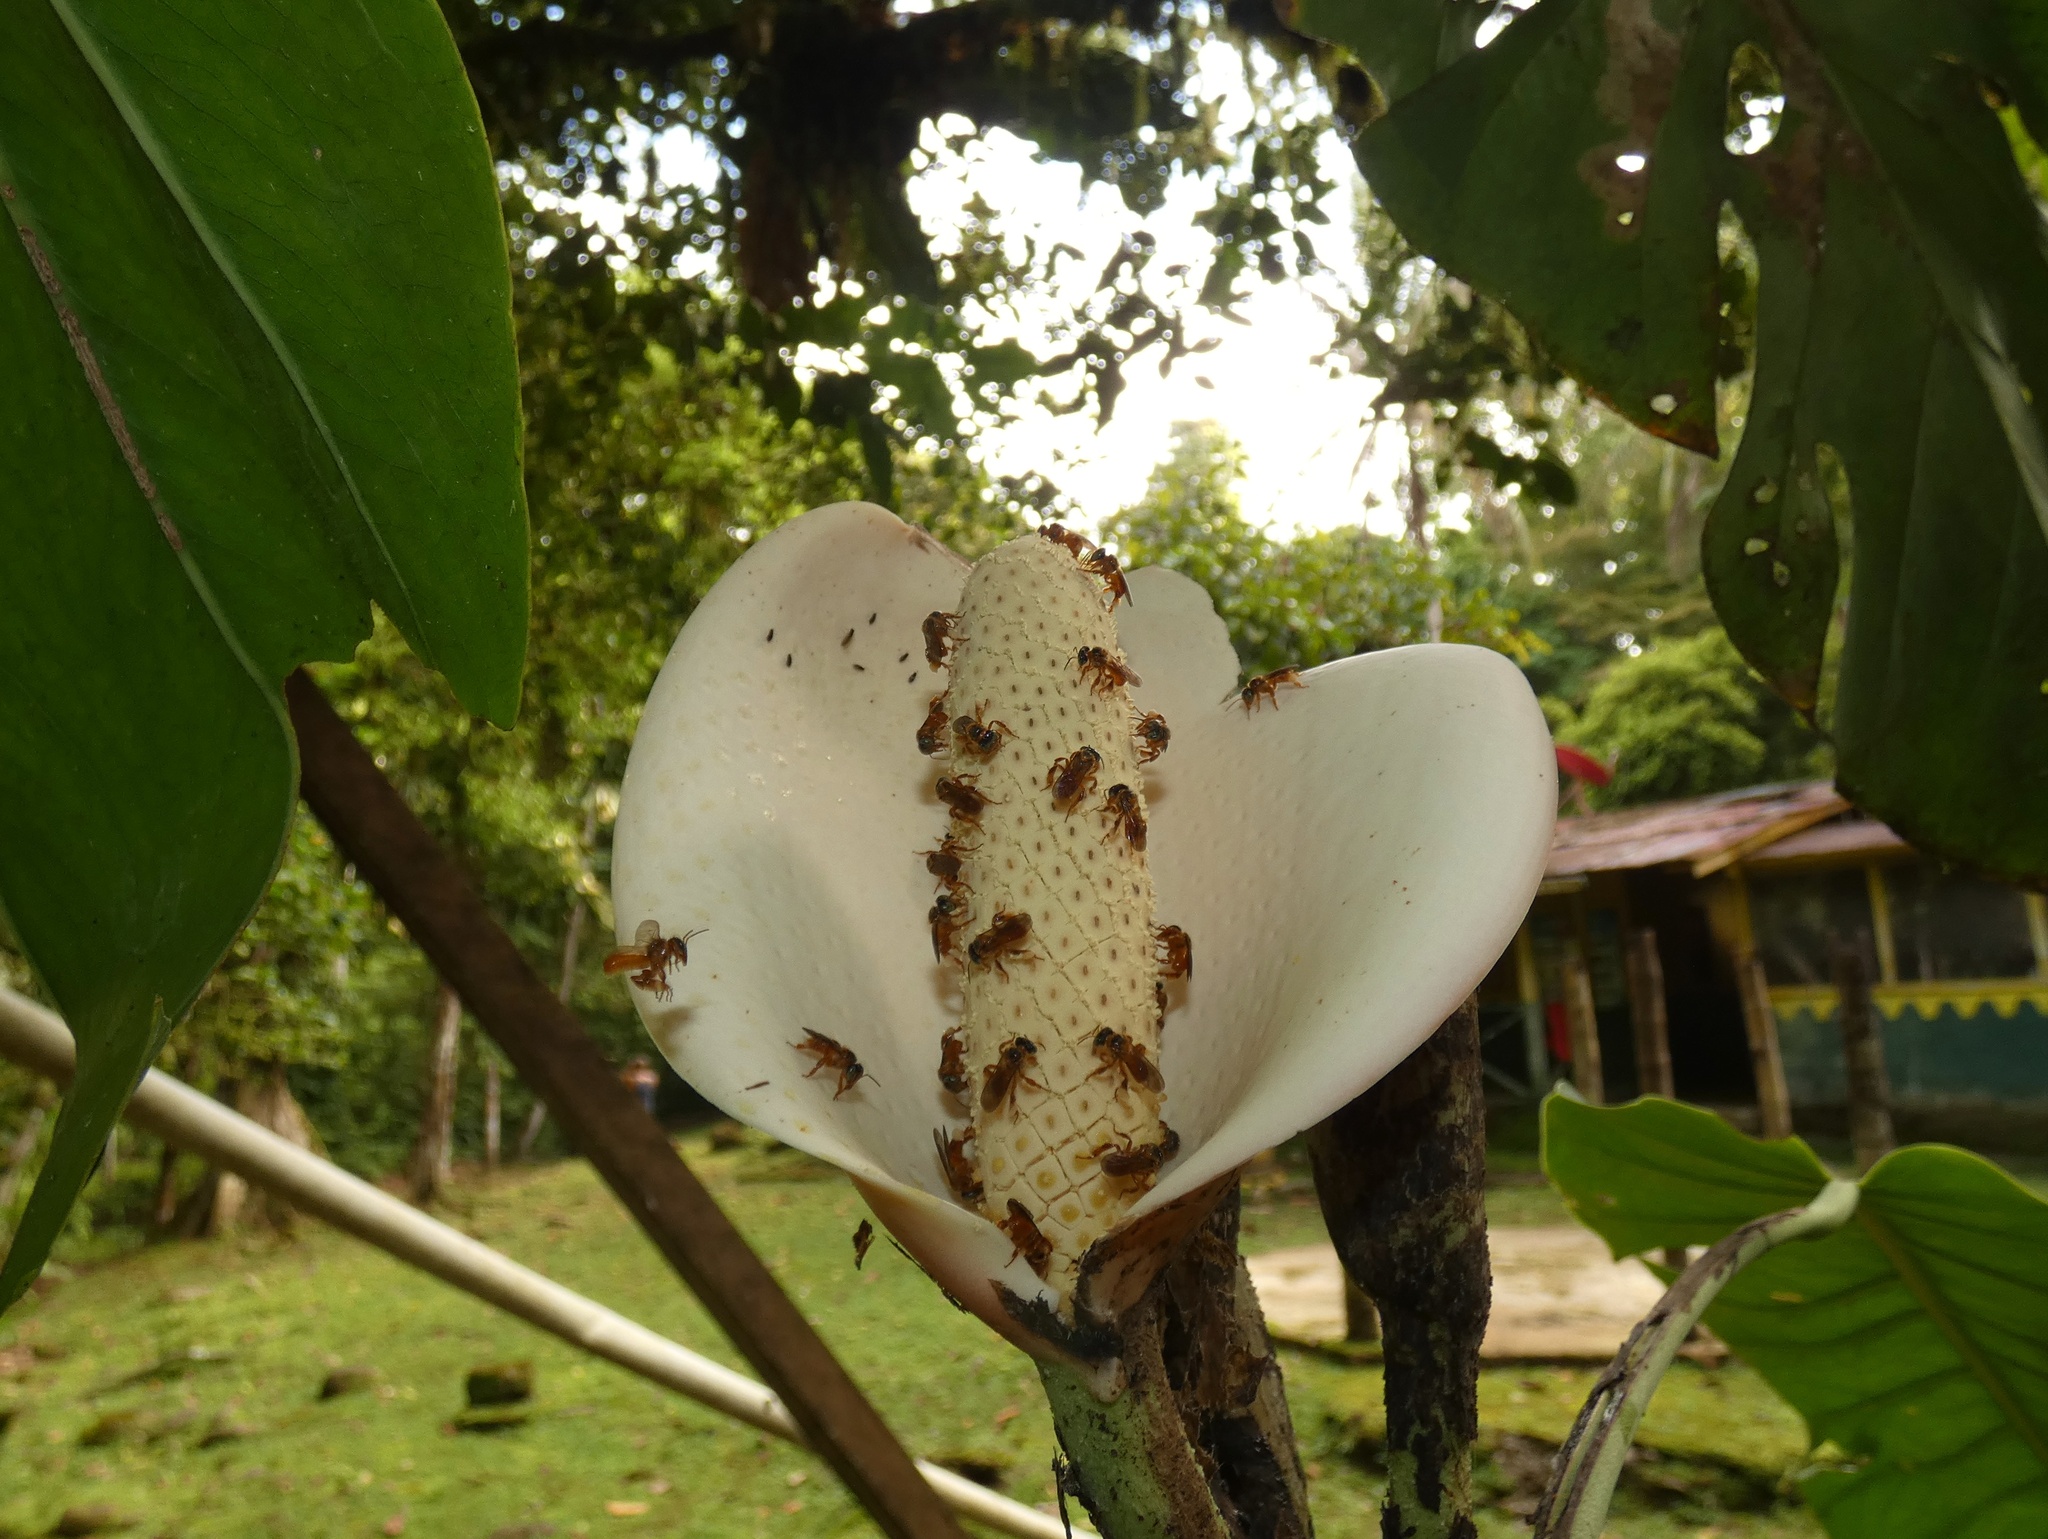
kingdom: Plantae
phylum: Tracheophyta
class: Liliopsida
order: Alismatales
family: Araceae
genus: Monstera
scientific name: Monstera dubia
